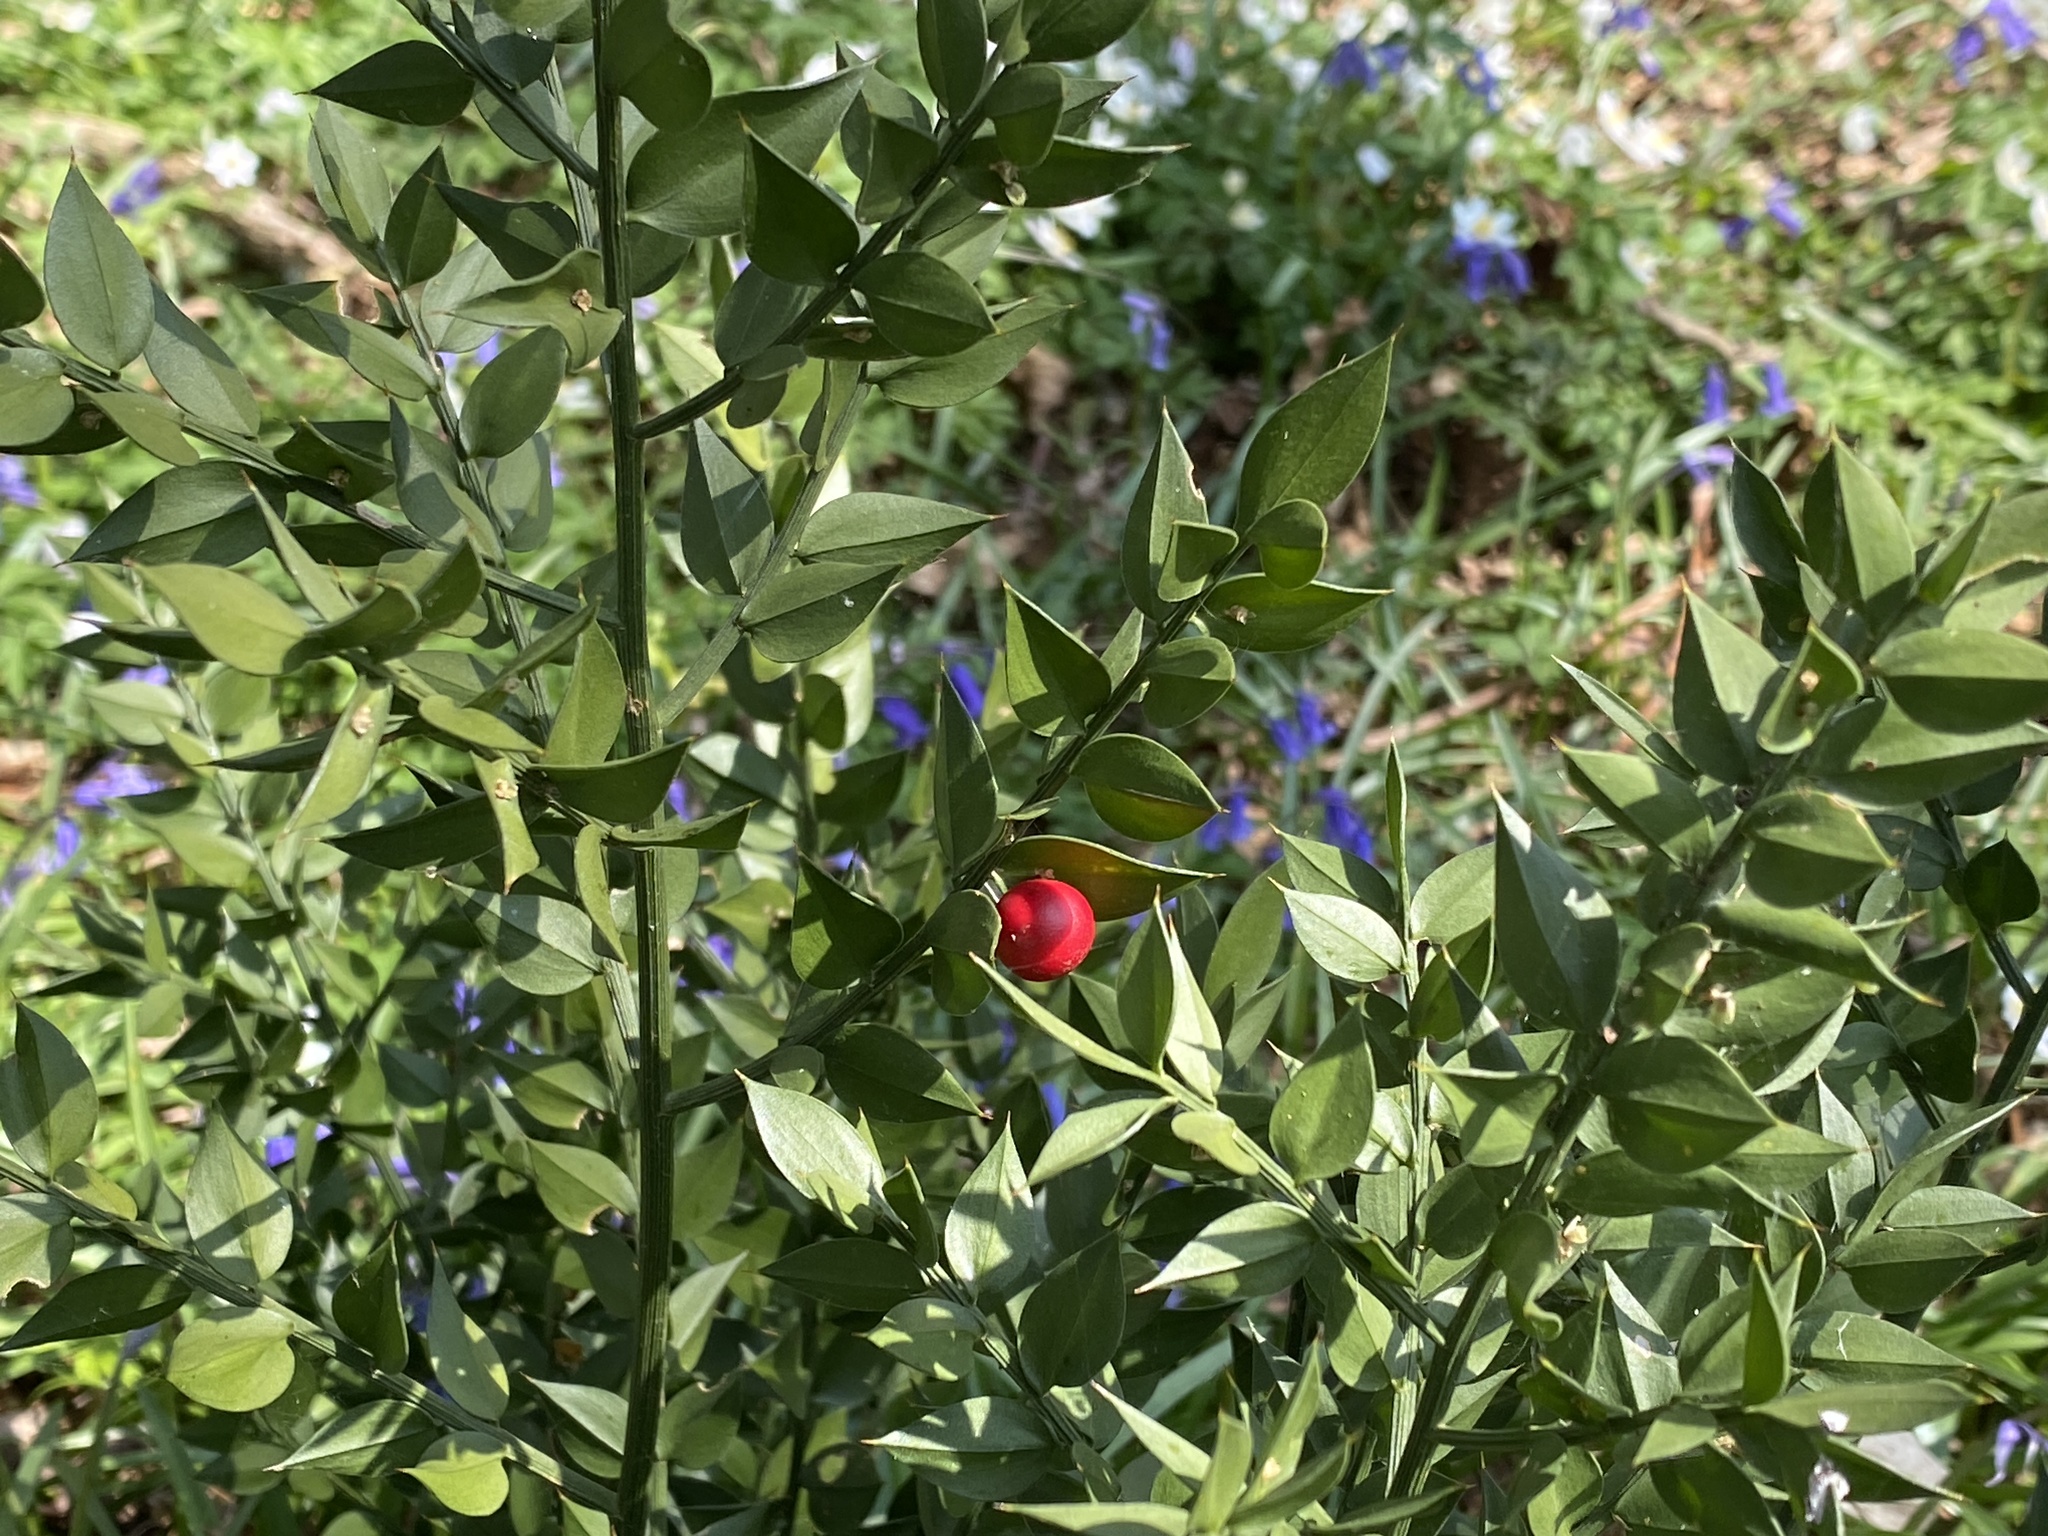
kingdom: Plantae
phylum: Tracheophyta
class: Liliopsida
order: Asparagales
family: Asparagaceae
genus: Ruscus
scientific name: Ruscus aculeatus
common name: Butcher's-broom
